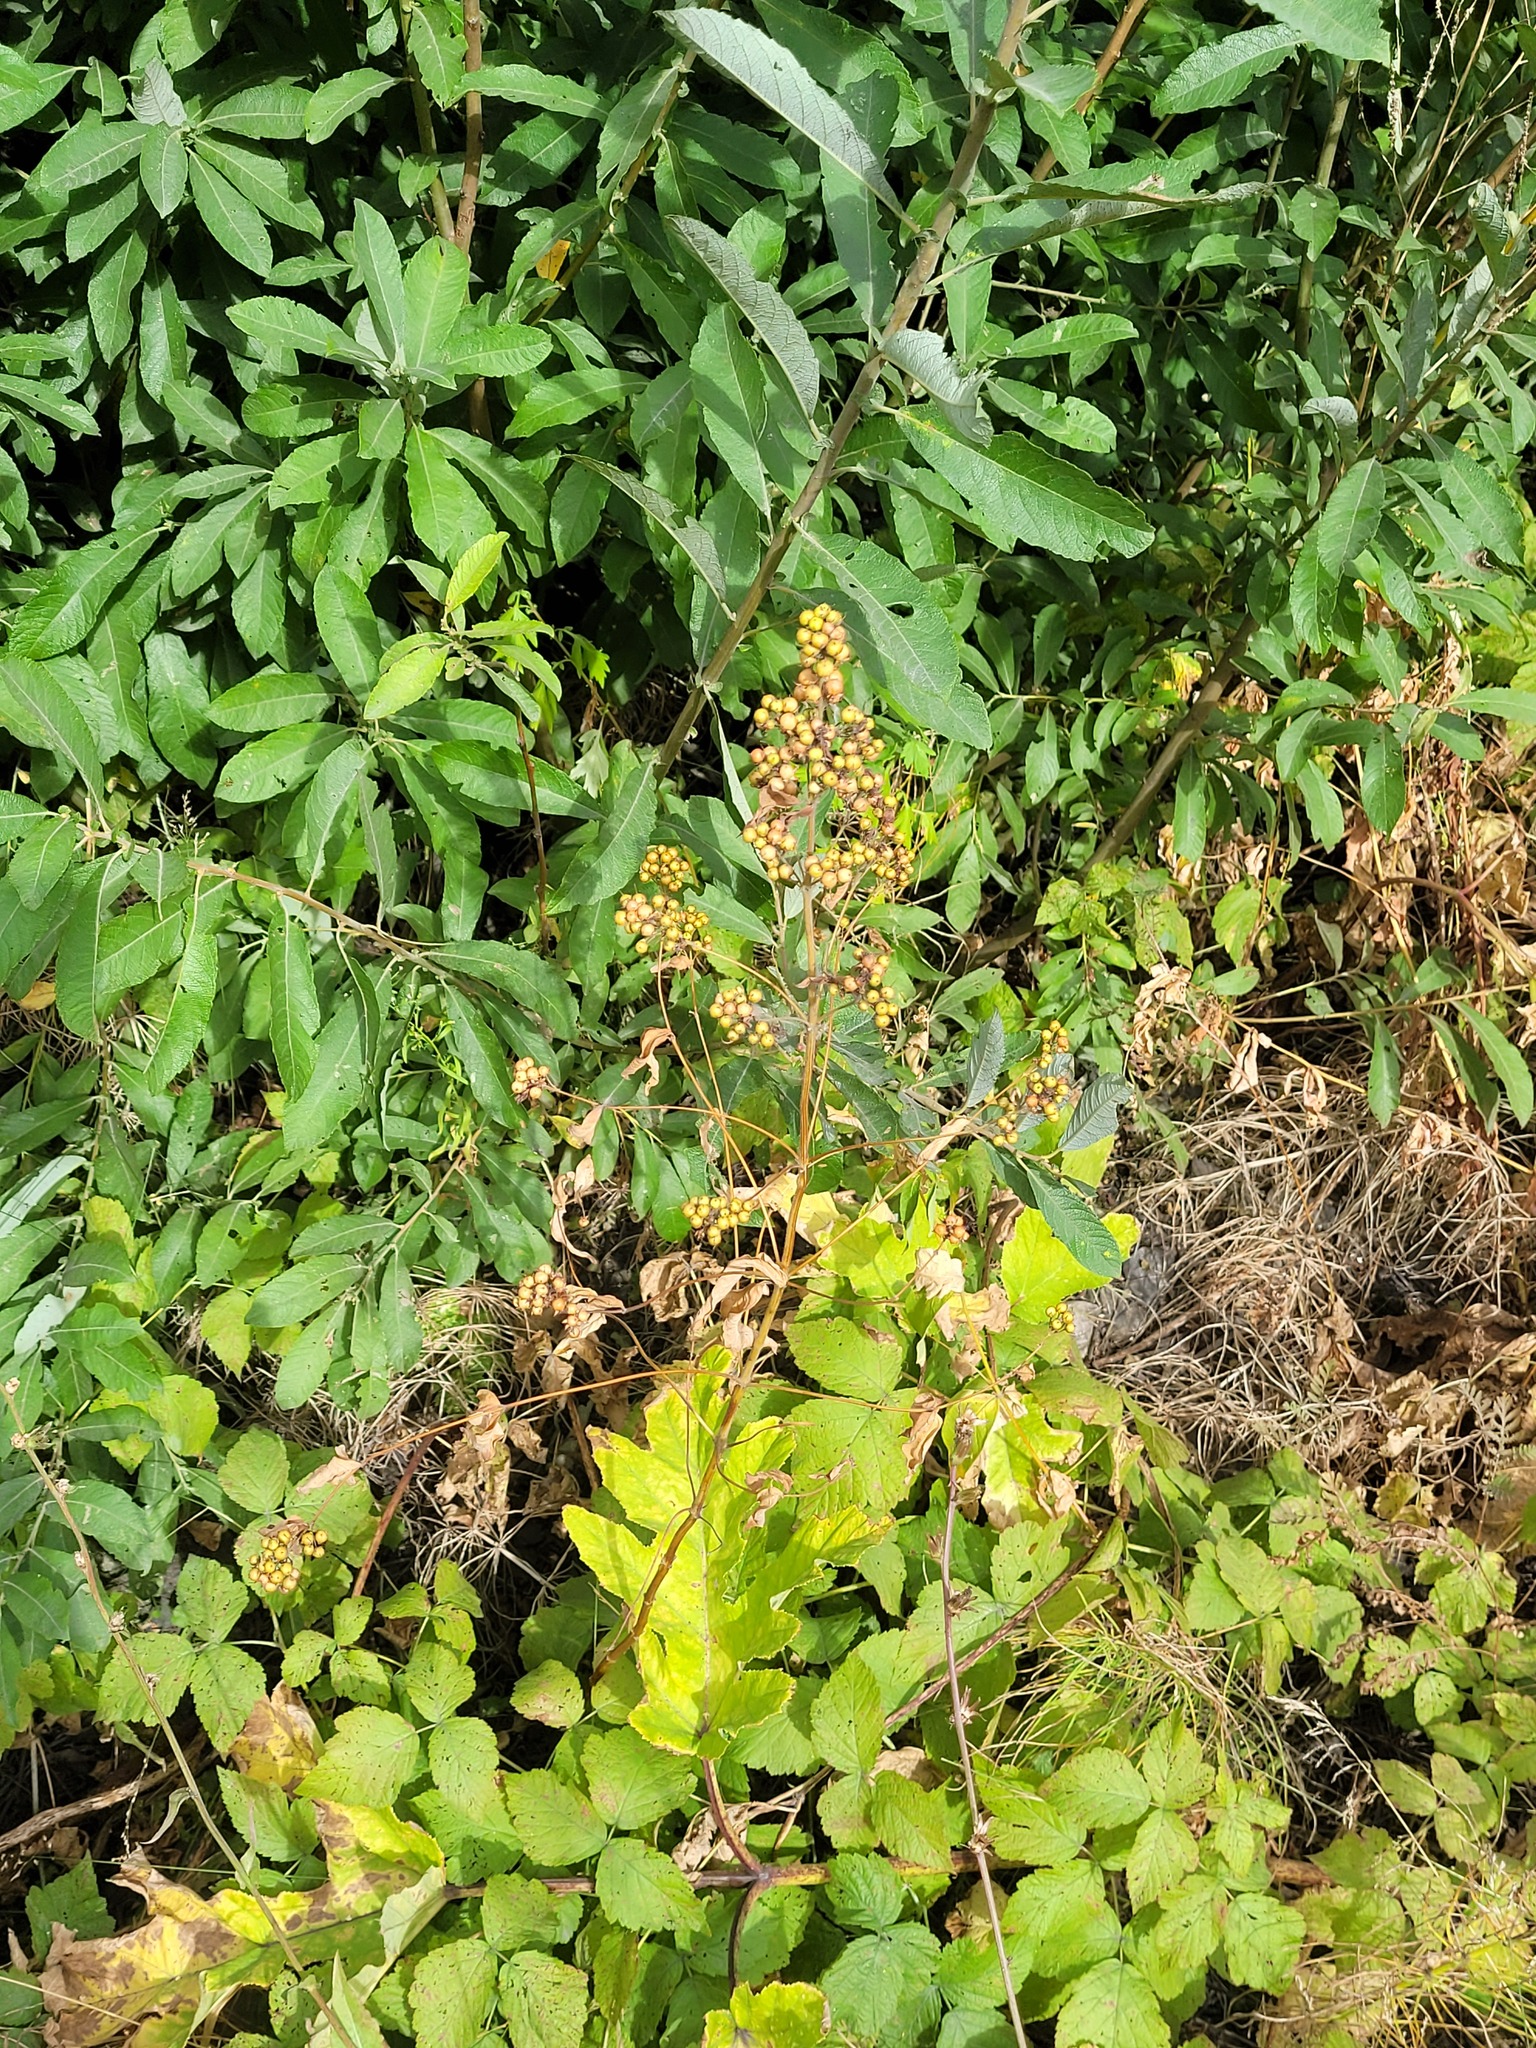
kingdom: Plantae
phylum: Tracheophyta
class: Magnoliopsida
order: Ericales
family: Primulaceae
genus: Lysimachia
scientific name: Lysimachia vulgaris
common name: Yellow loosestrife
